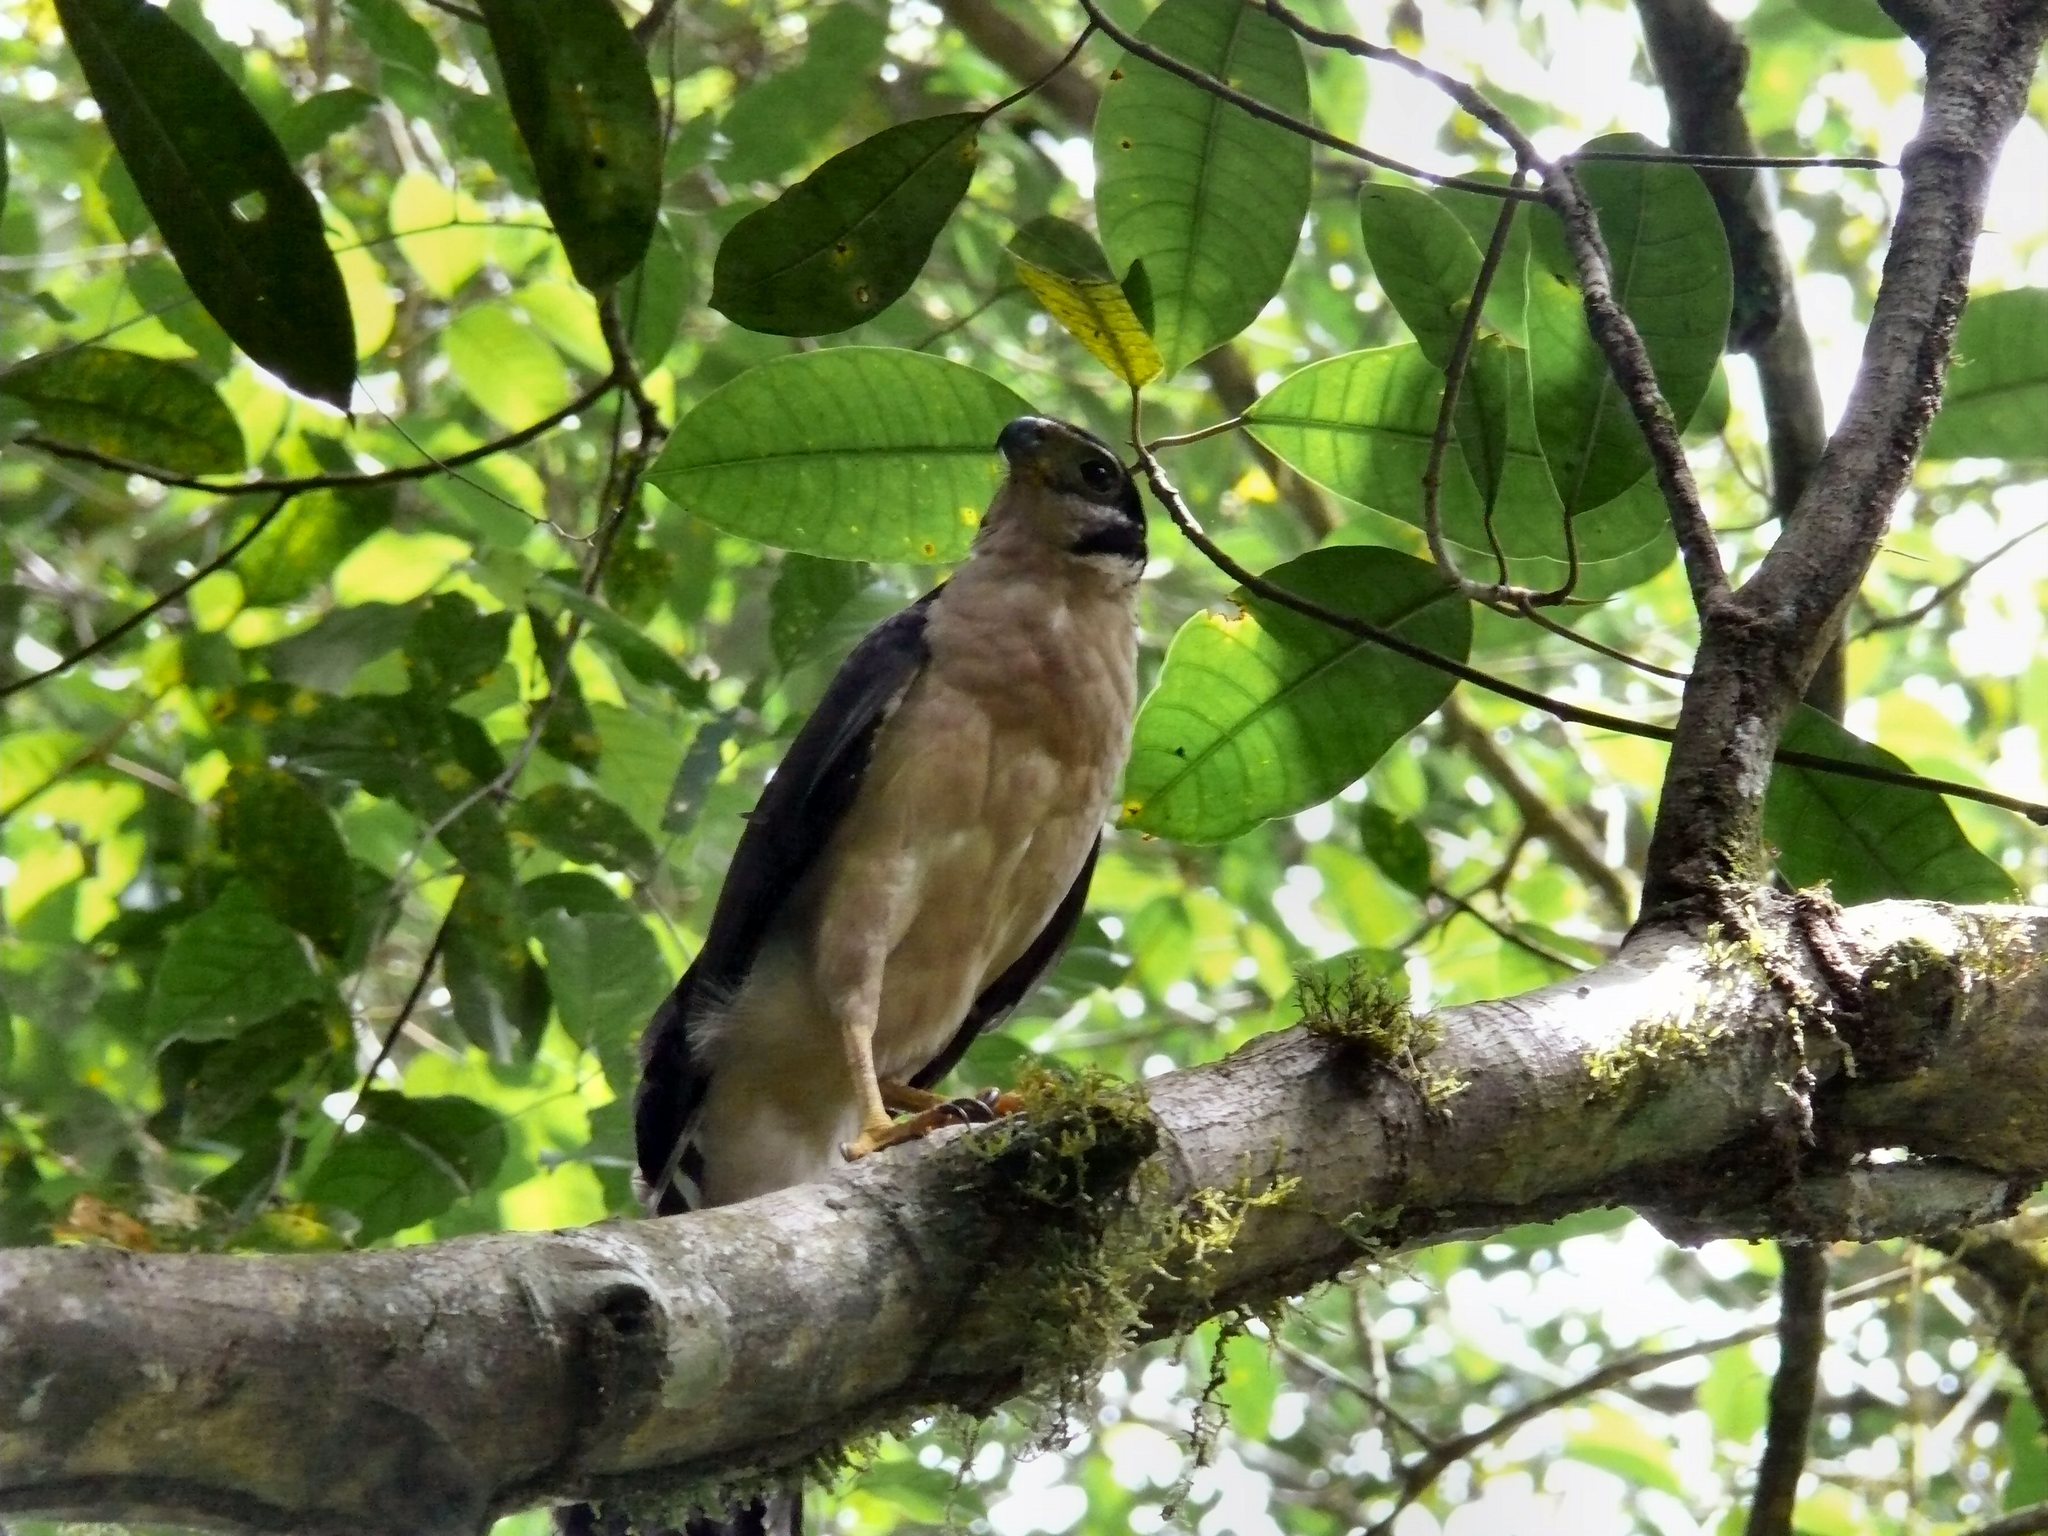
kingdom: Animalia
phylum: Chordata
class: Aves
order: Falconiformes
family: Falconidae
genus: Micrastur
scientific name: Micrastur semitorquatus
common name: Collared forest-falcon
